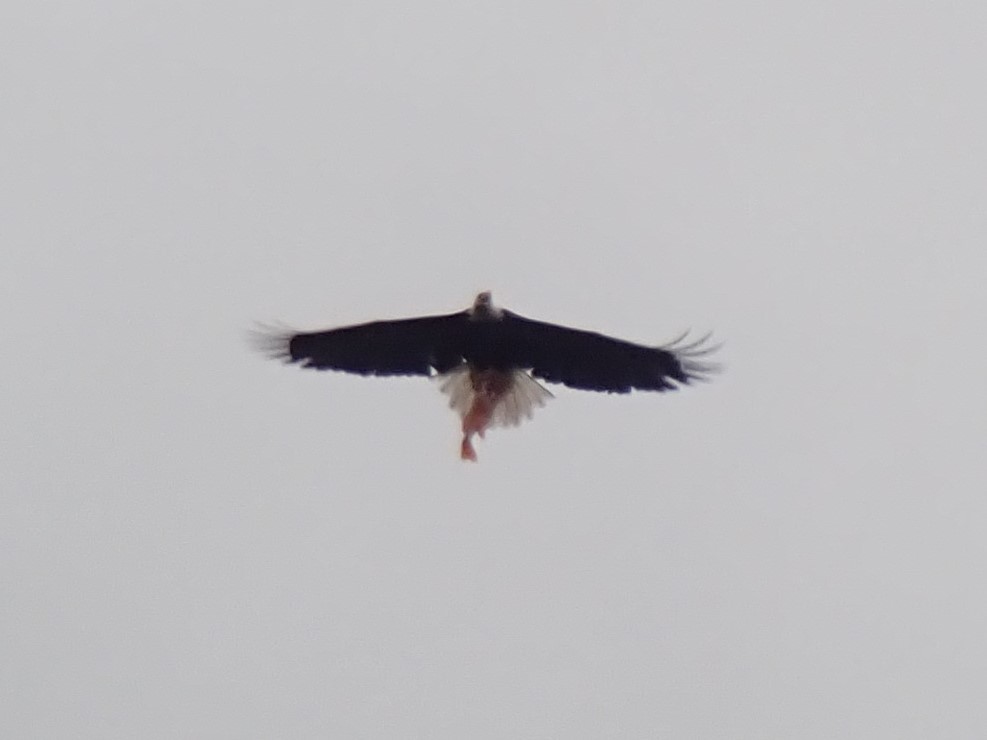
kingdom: Animalia
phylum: Chordata
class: Aves
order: Accipitriformes
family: Accipitridae
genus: Haliaeetus
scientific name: Haliaeetus leucocephalus
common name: Bald eagle
